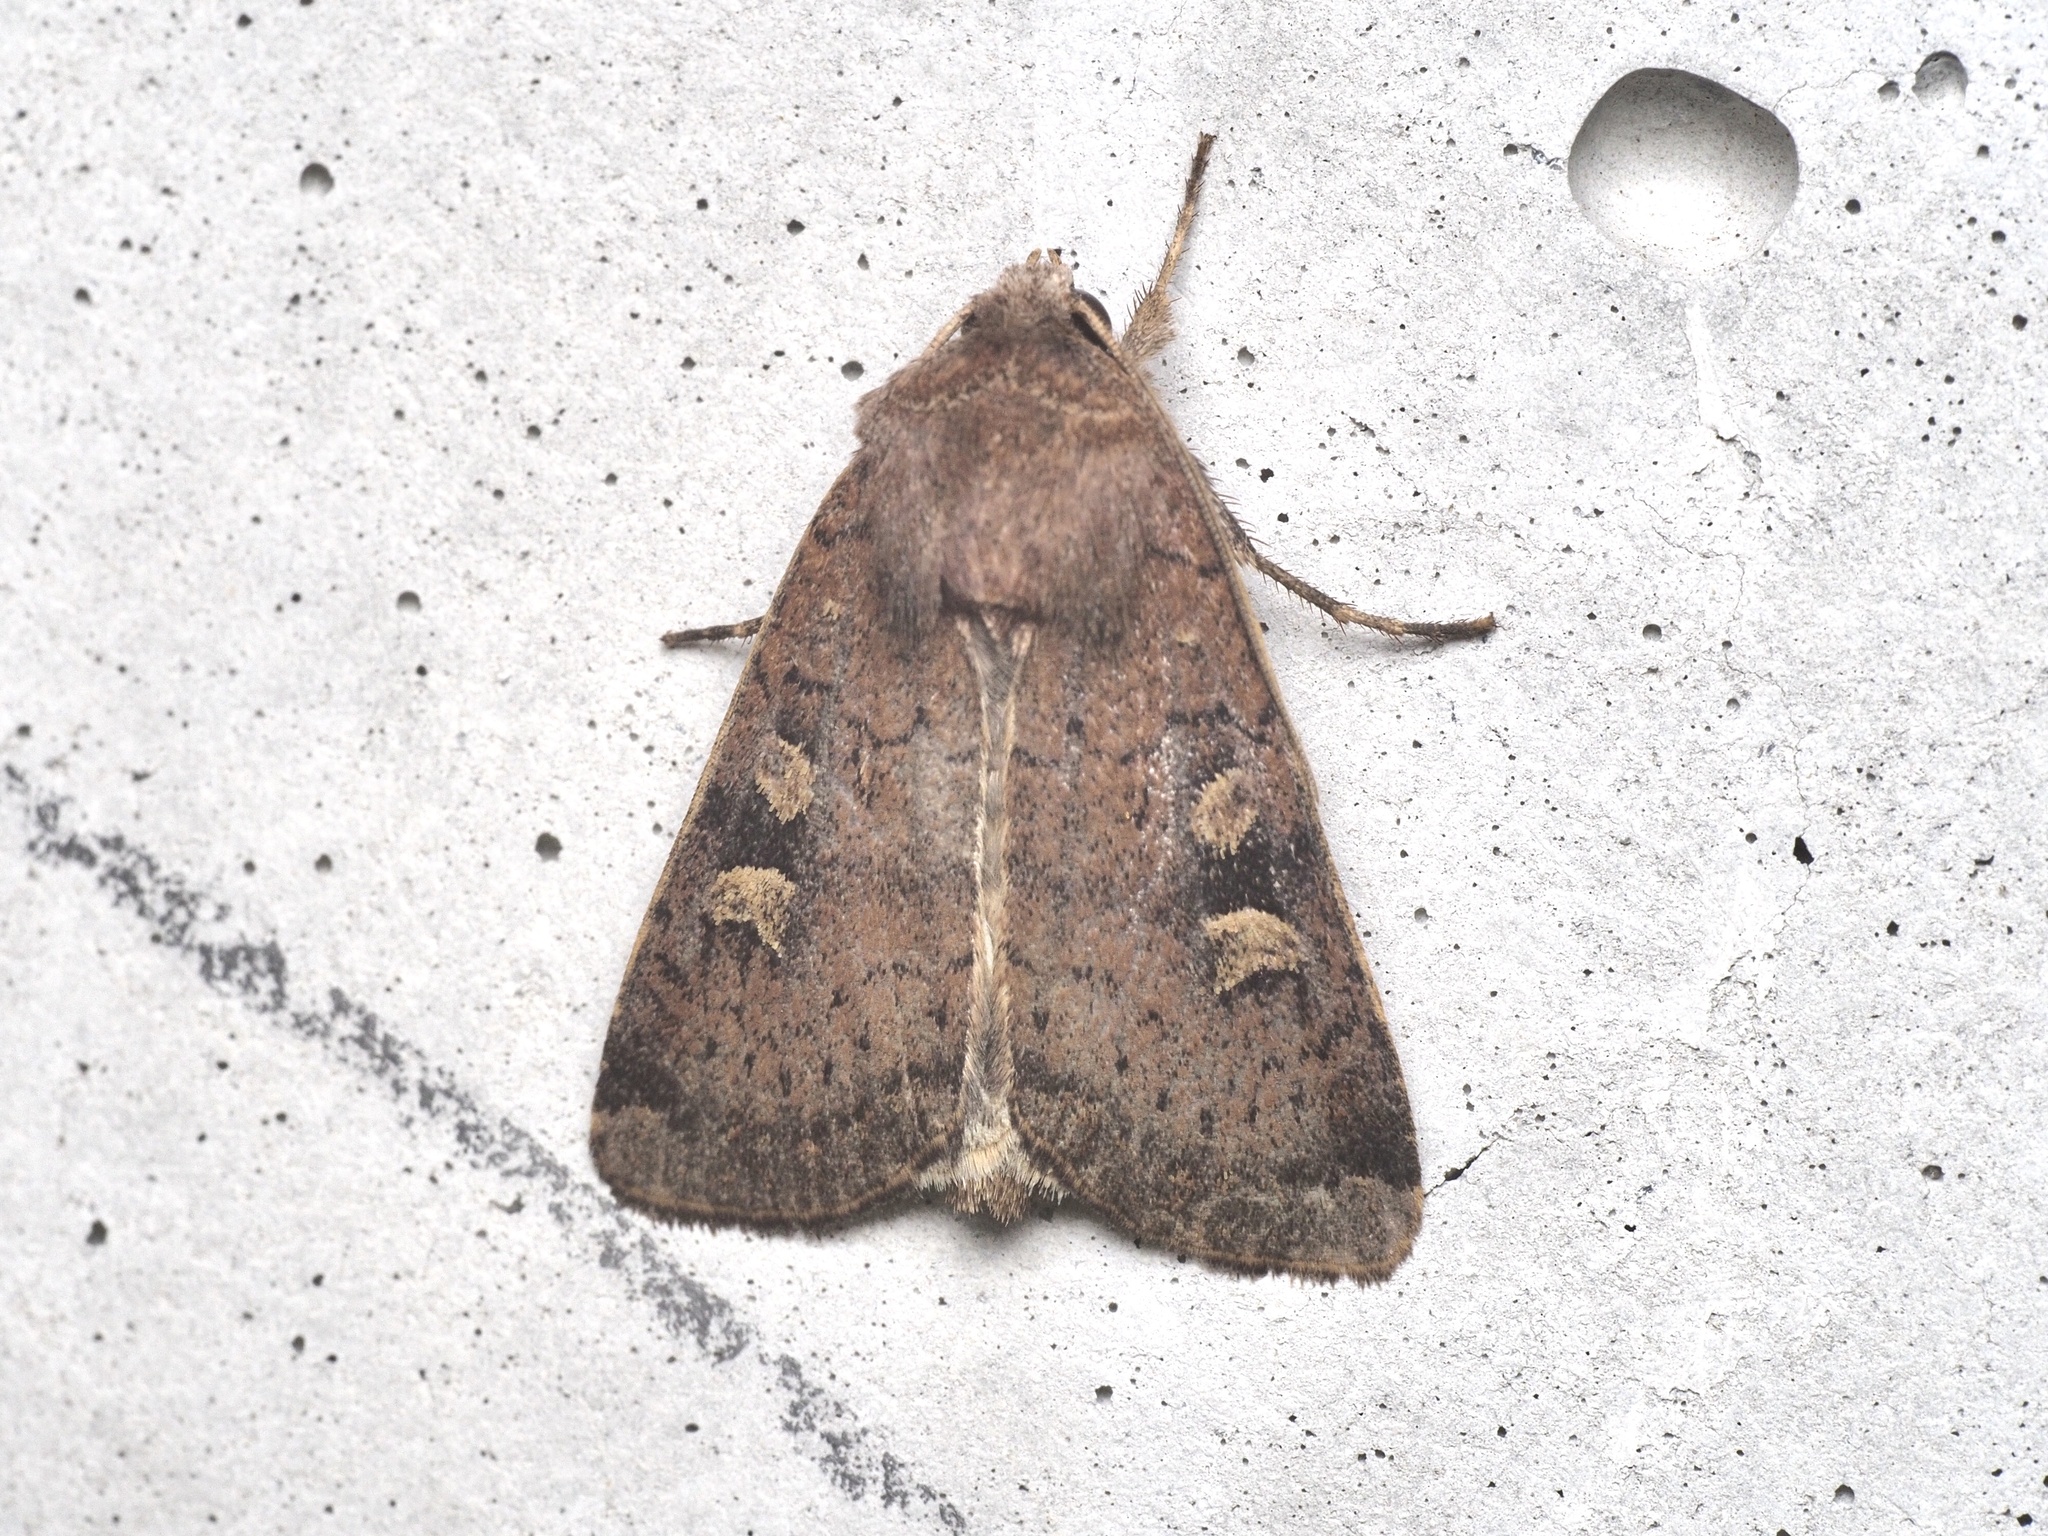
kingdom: Animalia
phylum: Arthropoda
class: Insecta
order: Lepidoptera
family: Noctuidae
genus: Xestia
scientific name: Xestia xanthographa
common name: Square-spot rustic
